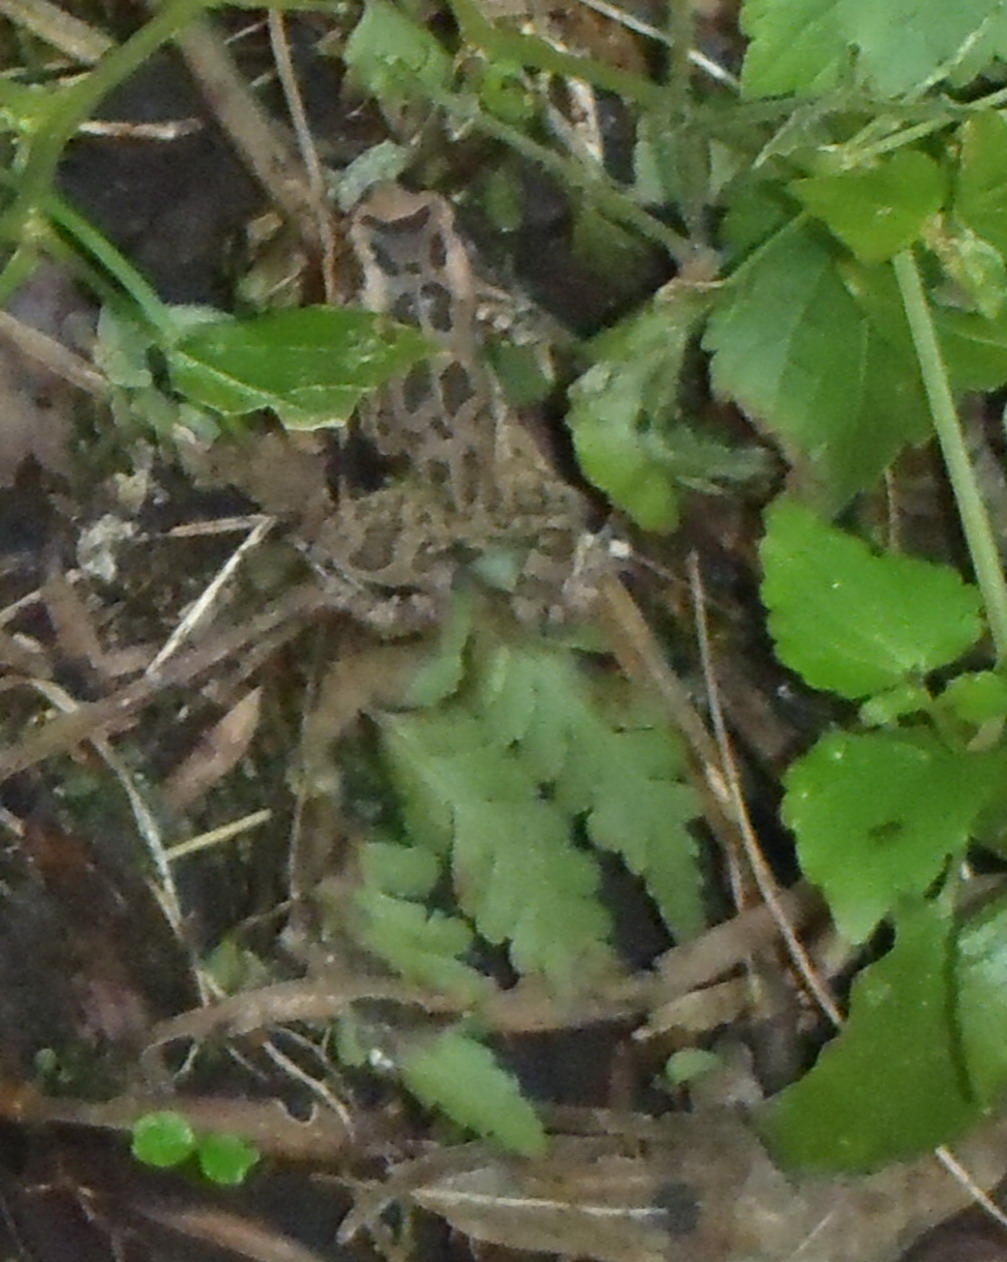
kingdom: Animalia
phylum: Chordata
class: Amphibia
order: Anura
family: Bufonidae
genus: Sclerophrys
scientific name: Sclerophrys capensis
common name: Ranger’s toad
